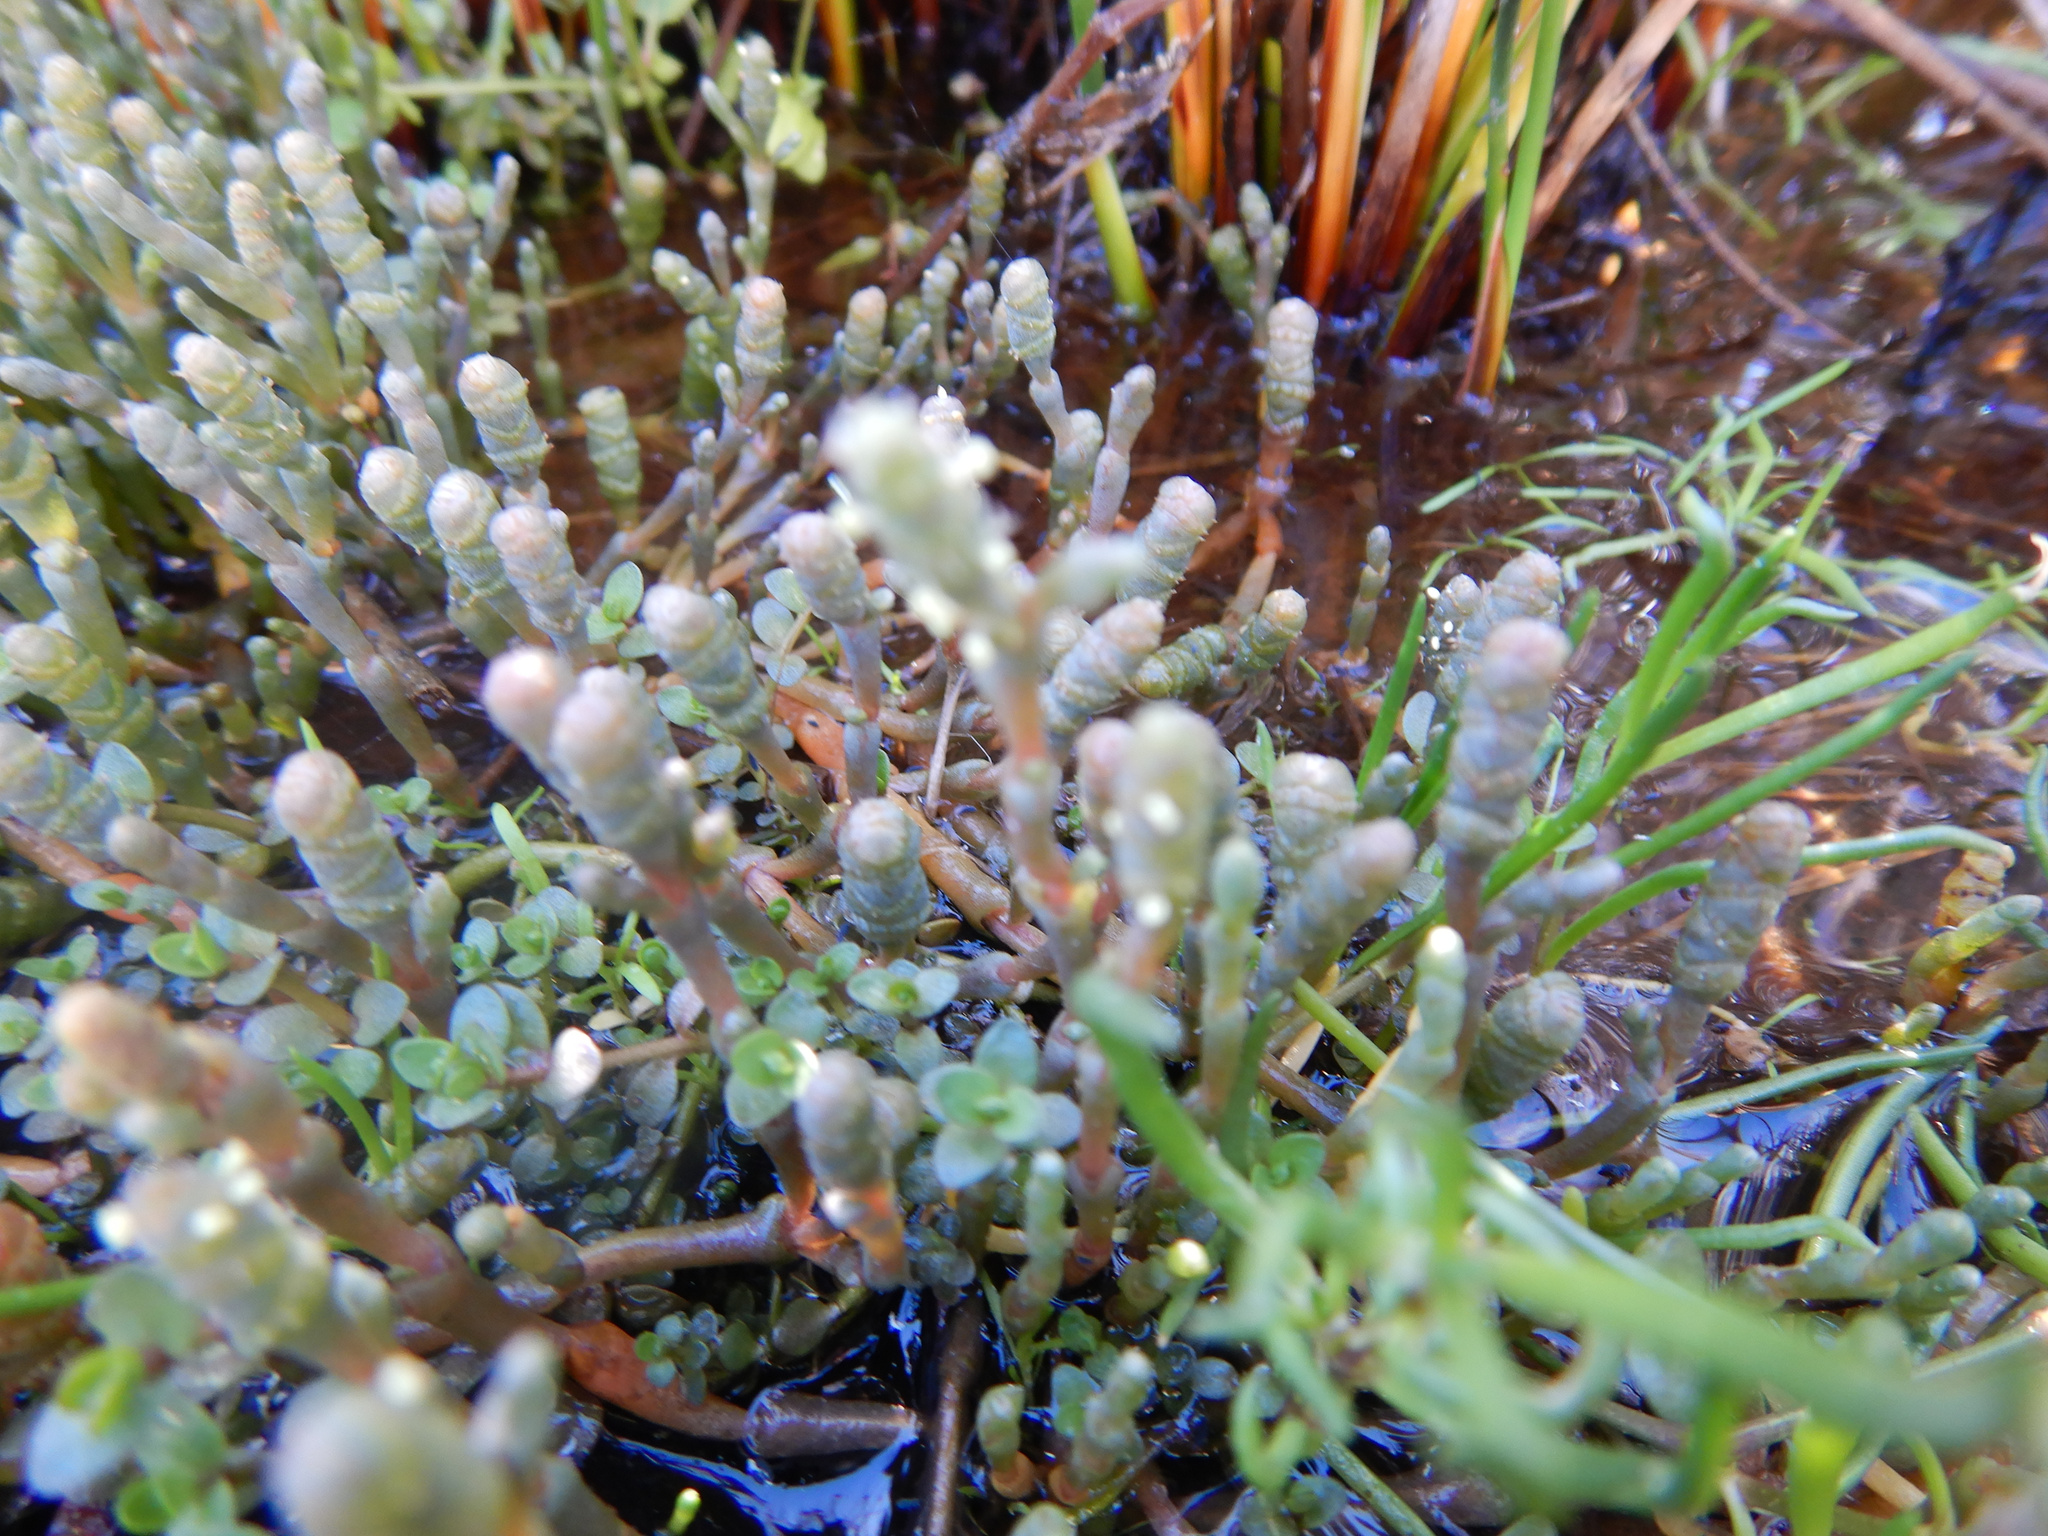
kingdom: Plantae
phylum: Tracheophyta
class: Magnoliopsida
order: Lamiales
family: Phrymaceae
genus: Thyridia
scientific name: Thyridia repens
